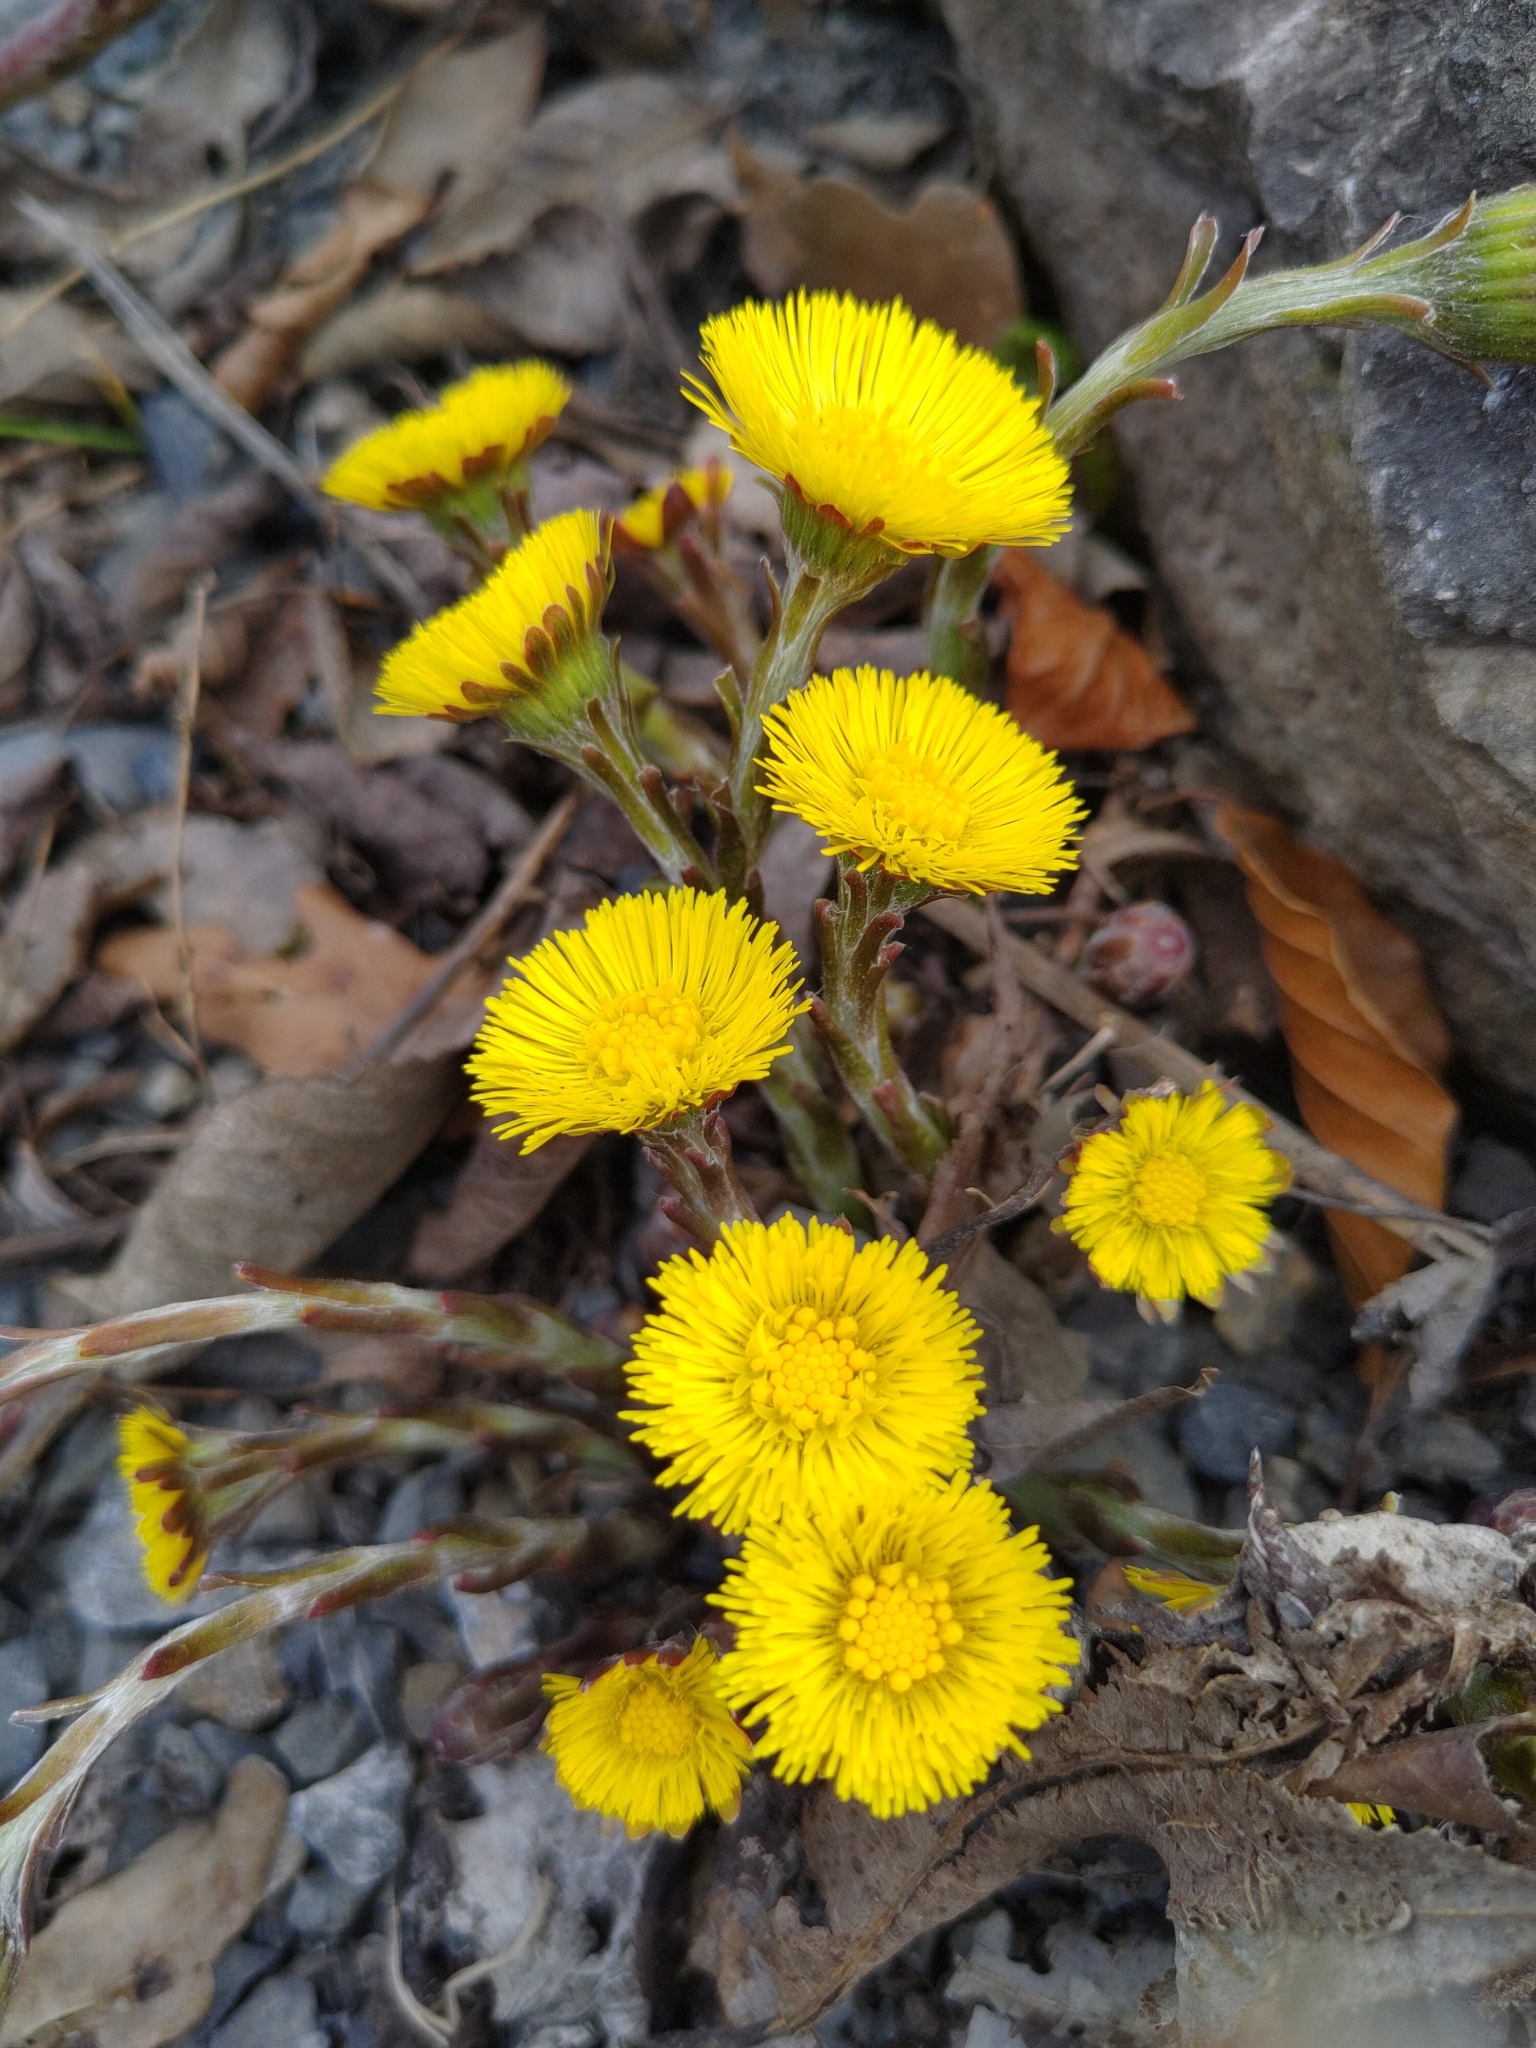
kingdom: Plantae
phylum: Tracheophyta
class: Magnoliopsida
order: Asterales
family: Asteraceae
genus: Tussilago
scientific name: Tussilago farfara
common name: Coltsfoot
